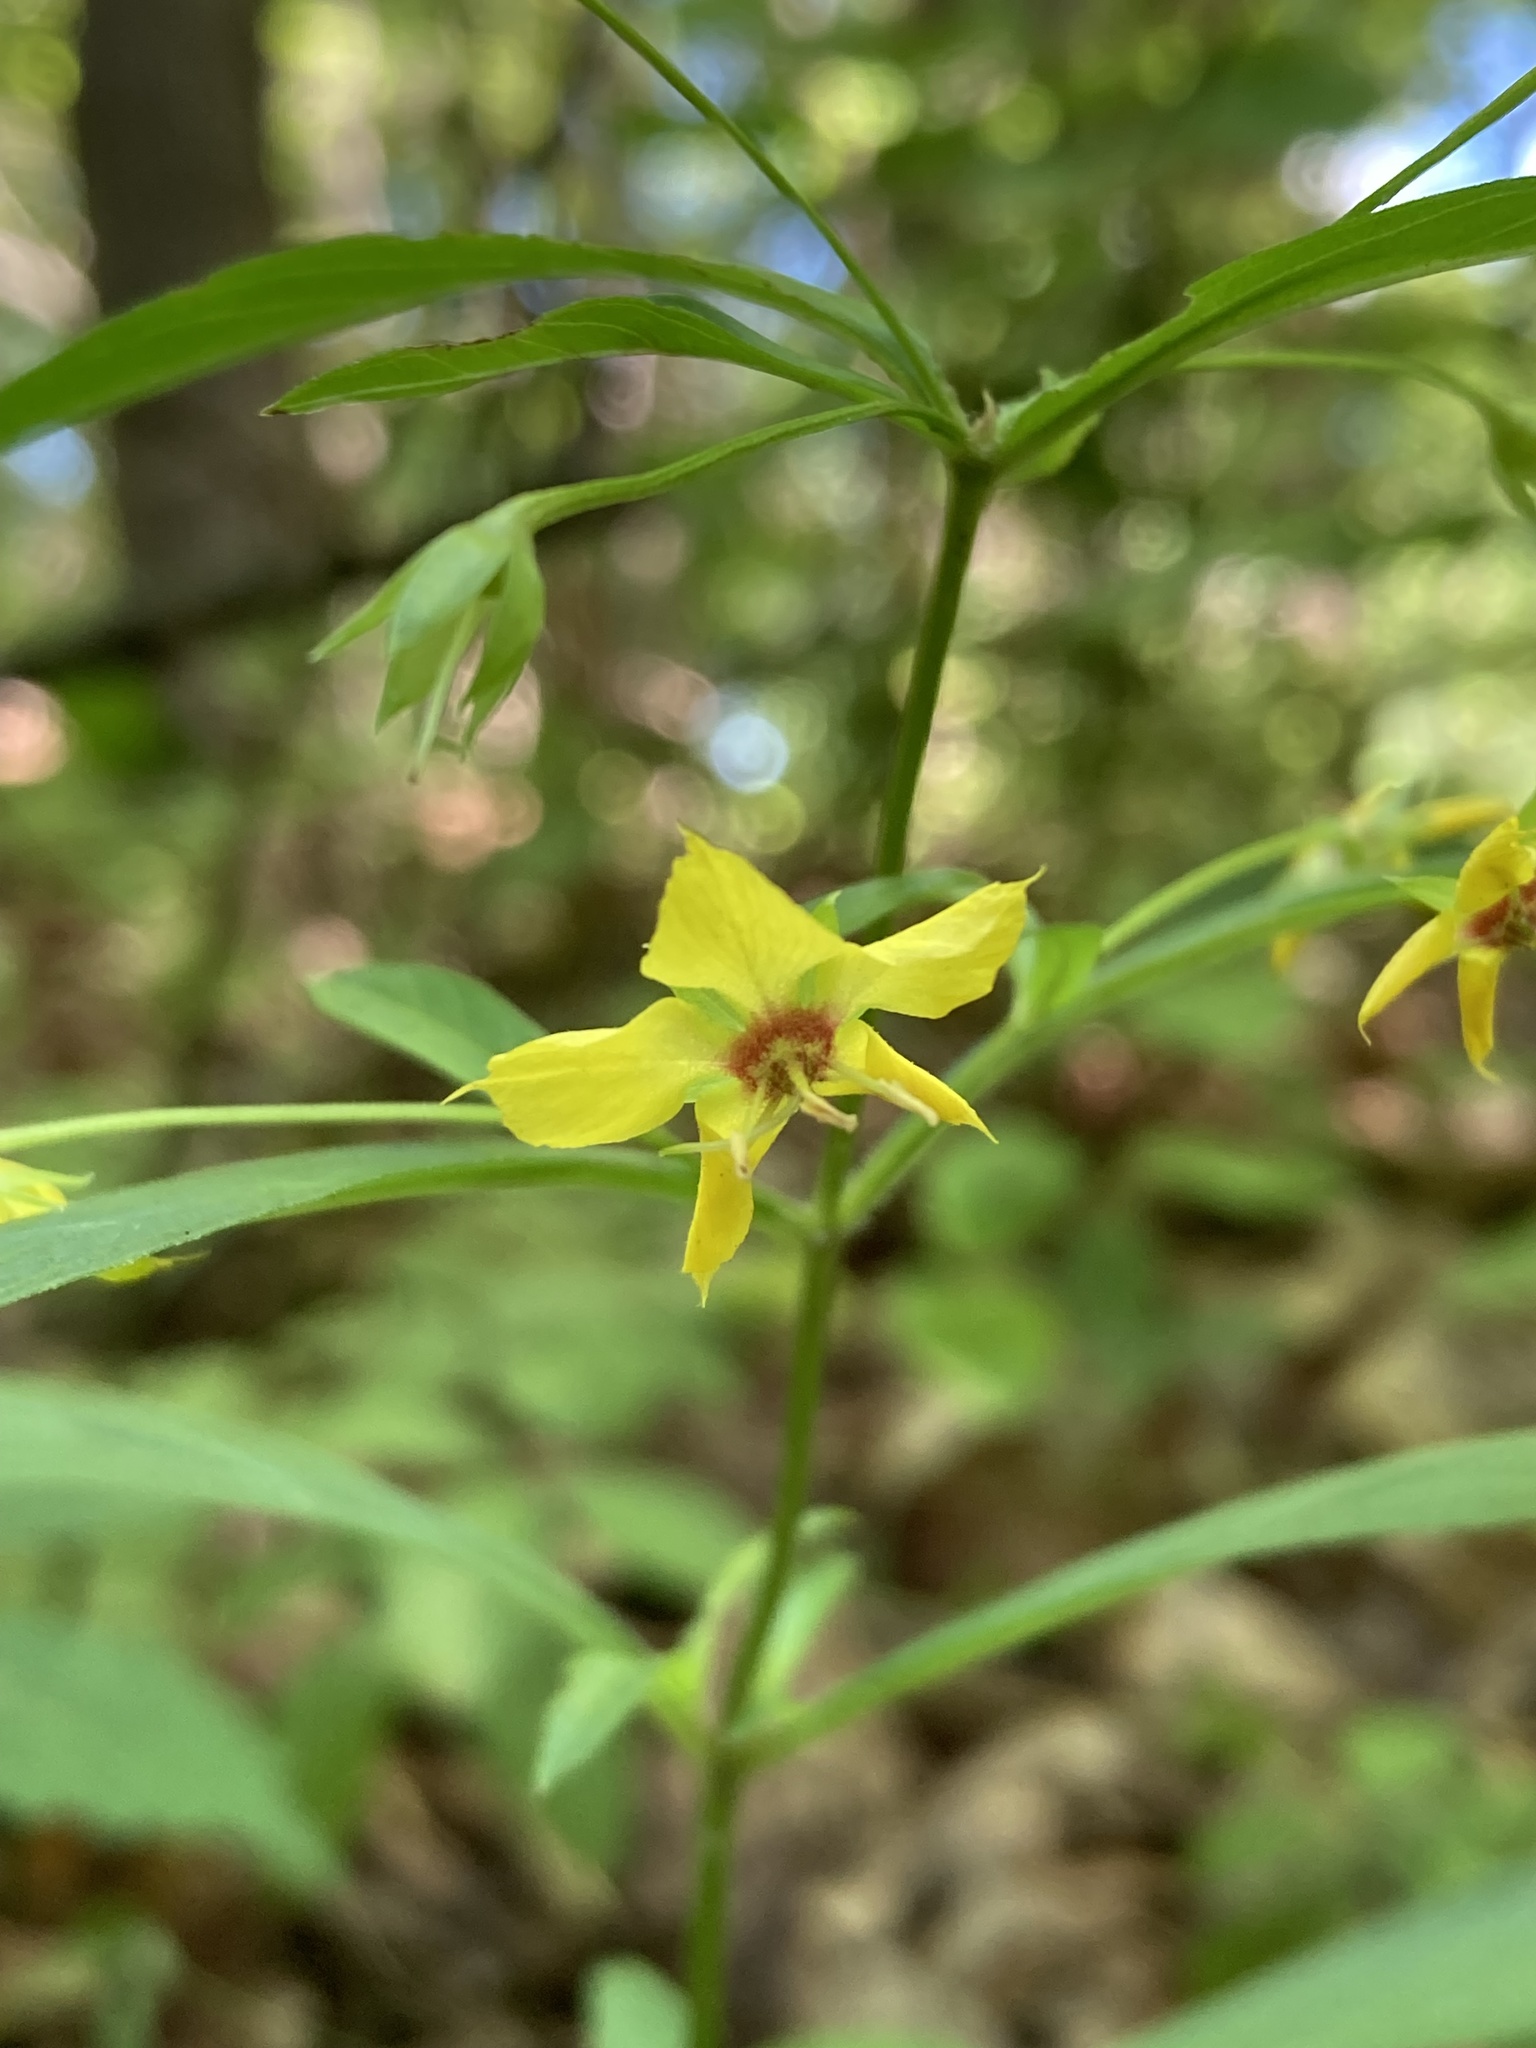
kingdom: Plantae
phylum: Tracheophyta
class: Magnoliopsida
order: Ericales
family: Primulaceae
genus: Lysimachia
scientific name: Lysimachia lanceolata
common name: Lance-leaved loosestrife
